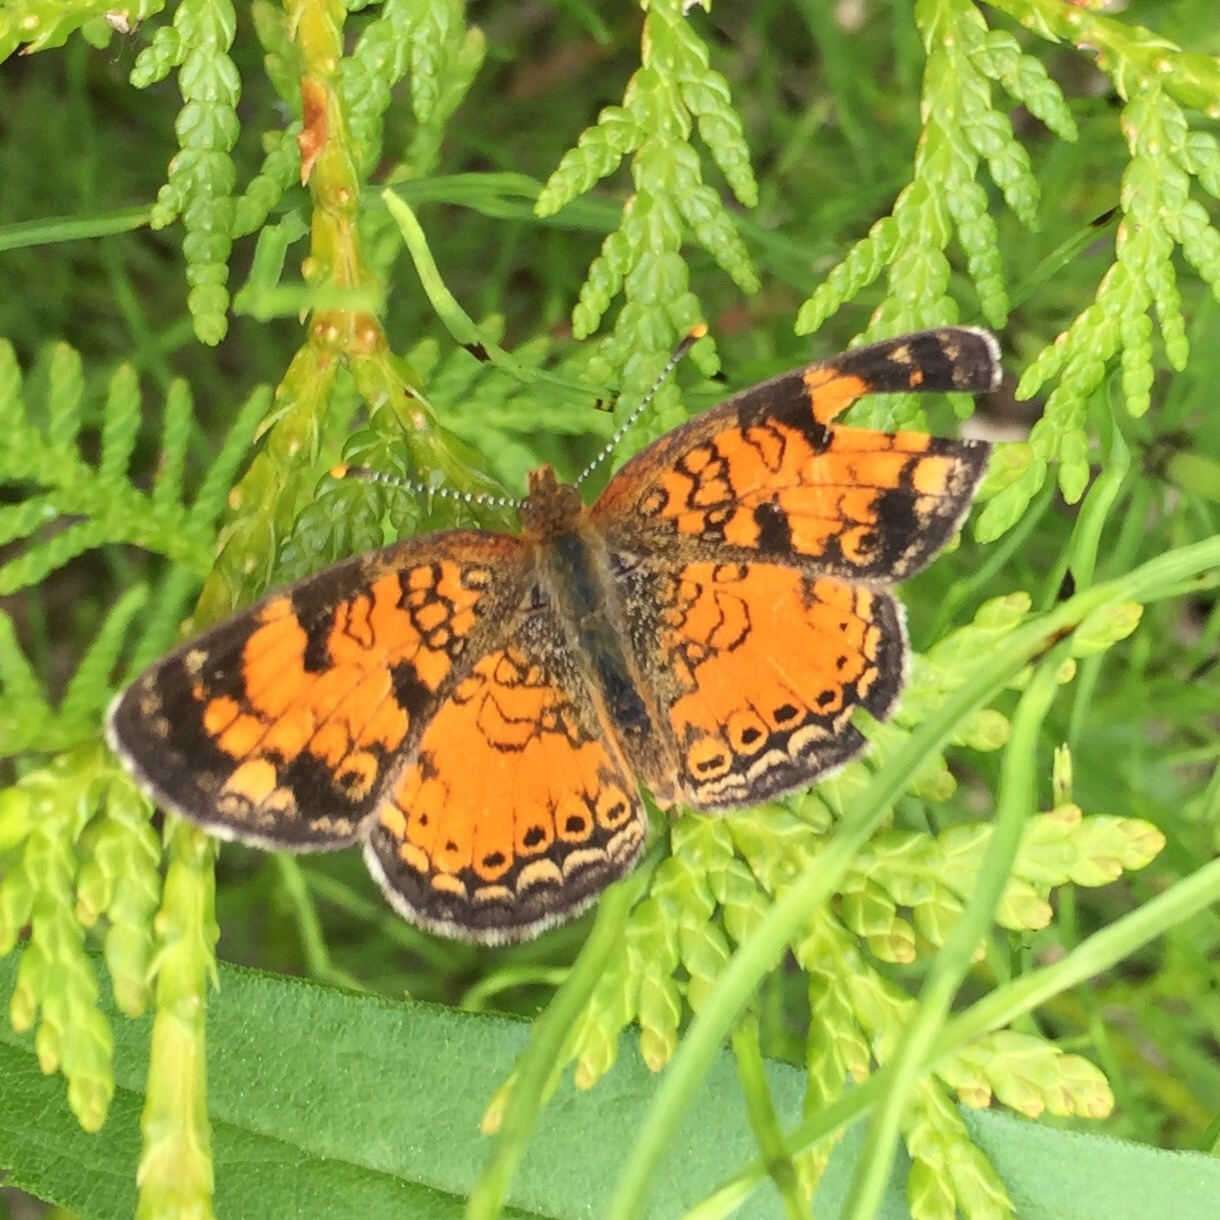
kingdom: Animalia
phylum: Arthropoda
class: Insecta
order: Lepidoptera
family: Nymphalidae
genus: Phyciodes
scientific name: Phyciodes tharos
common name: Pearl crescent
